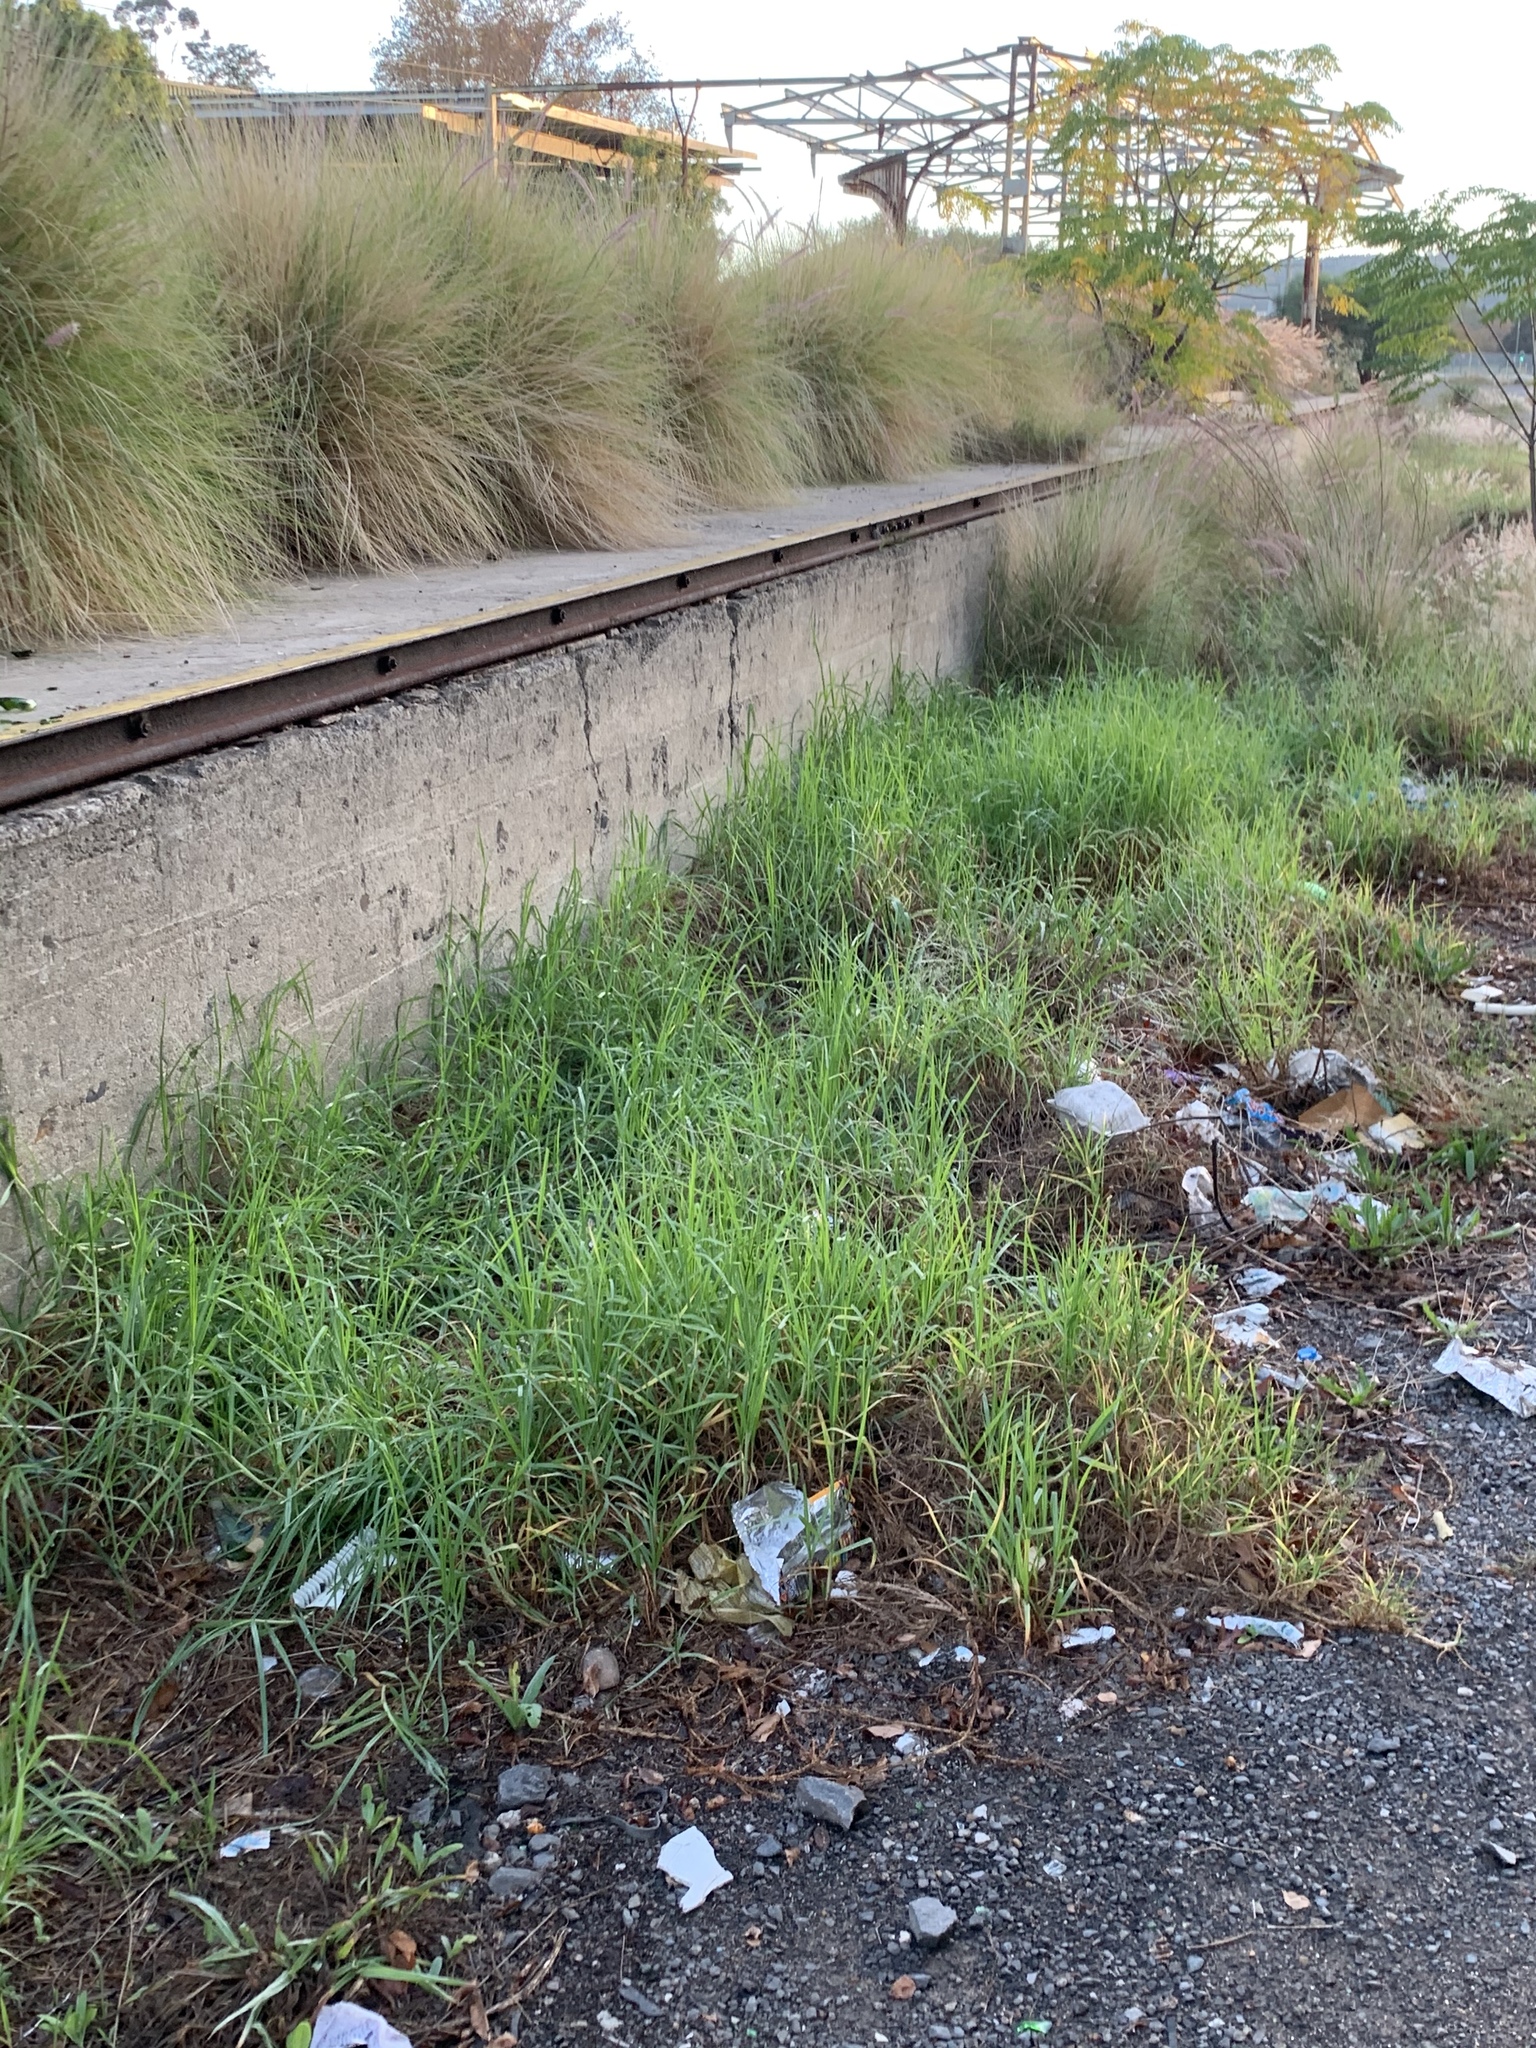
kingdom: Plantae
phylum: Tracheophyta
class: Liliopsida
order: Poales
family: Poaceae
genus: Cenchrus
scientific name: Cenchrus clandestinus
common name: Kikuyugrass
